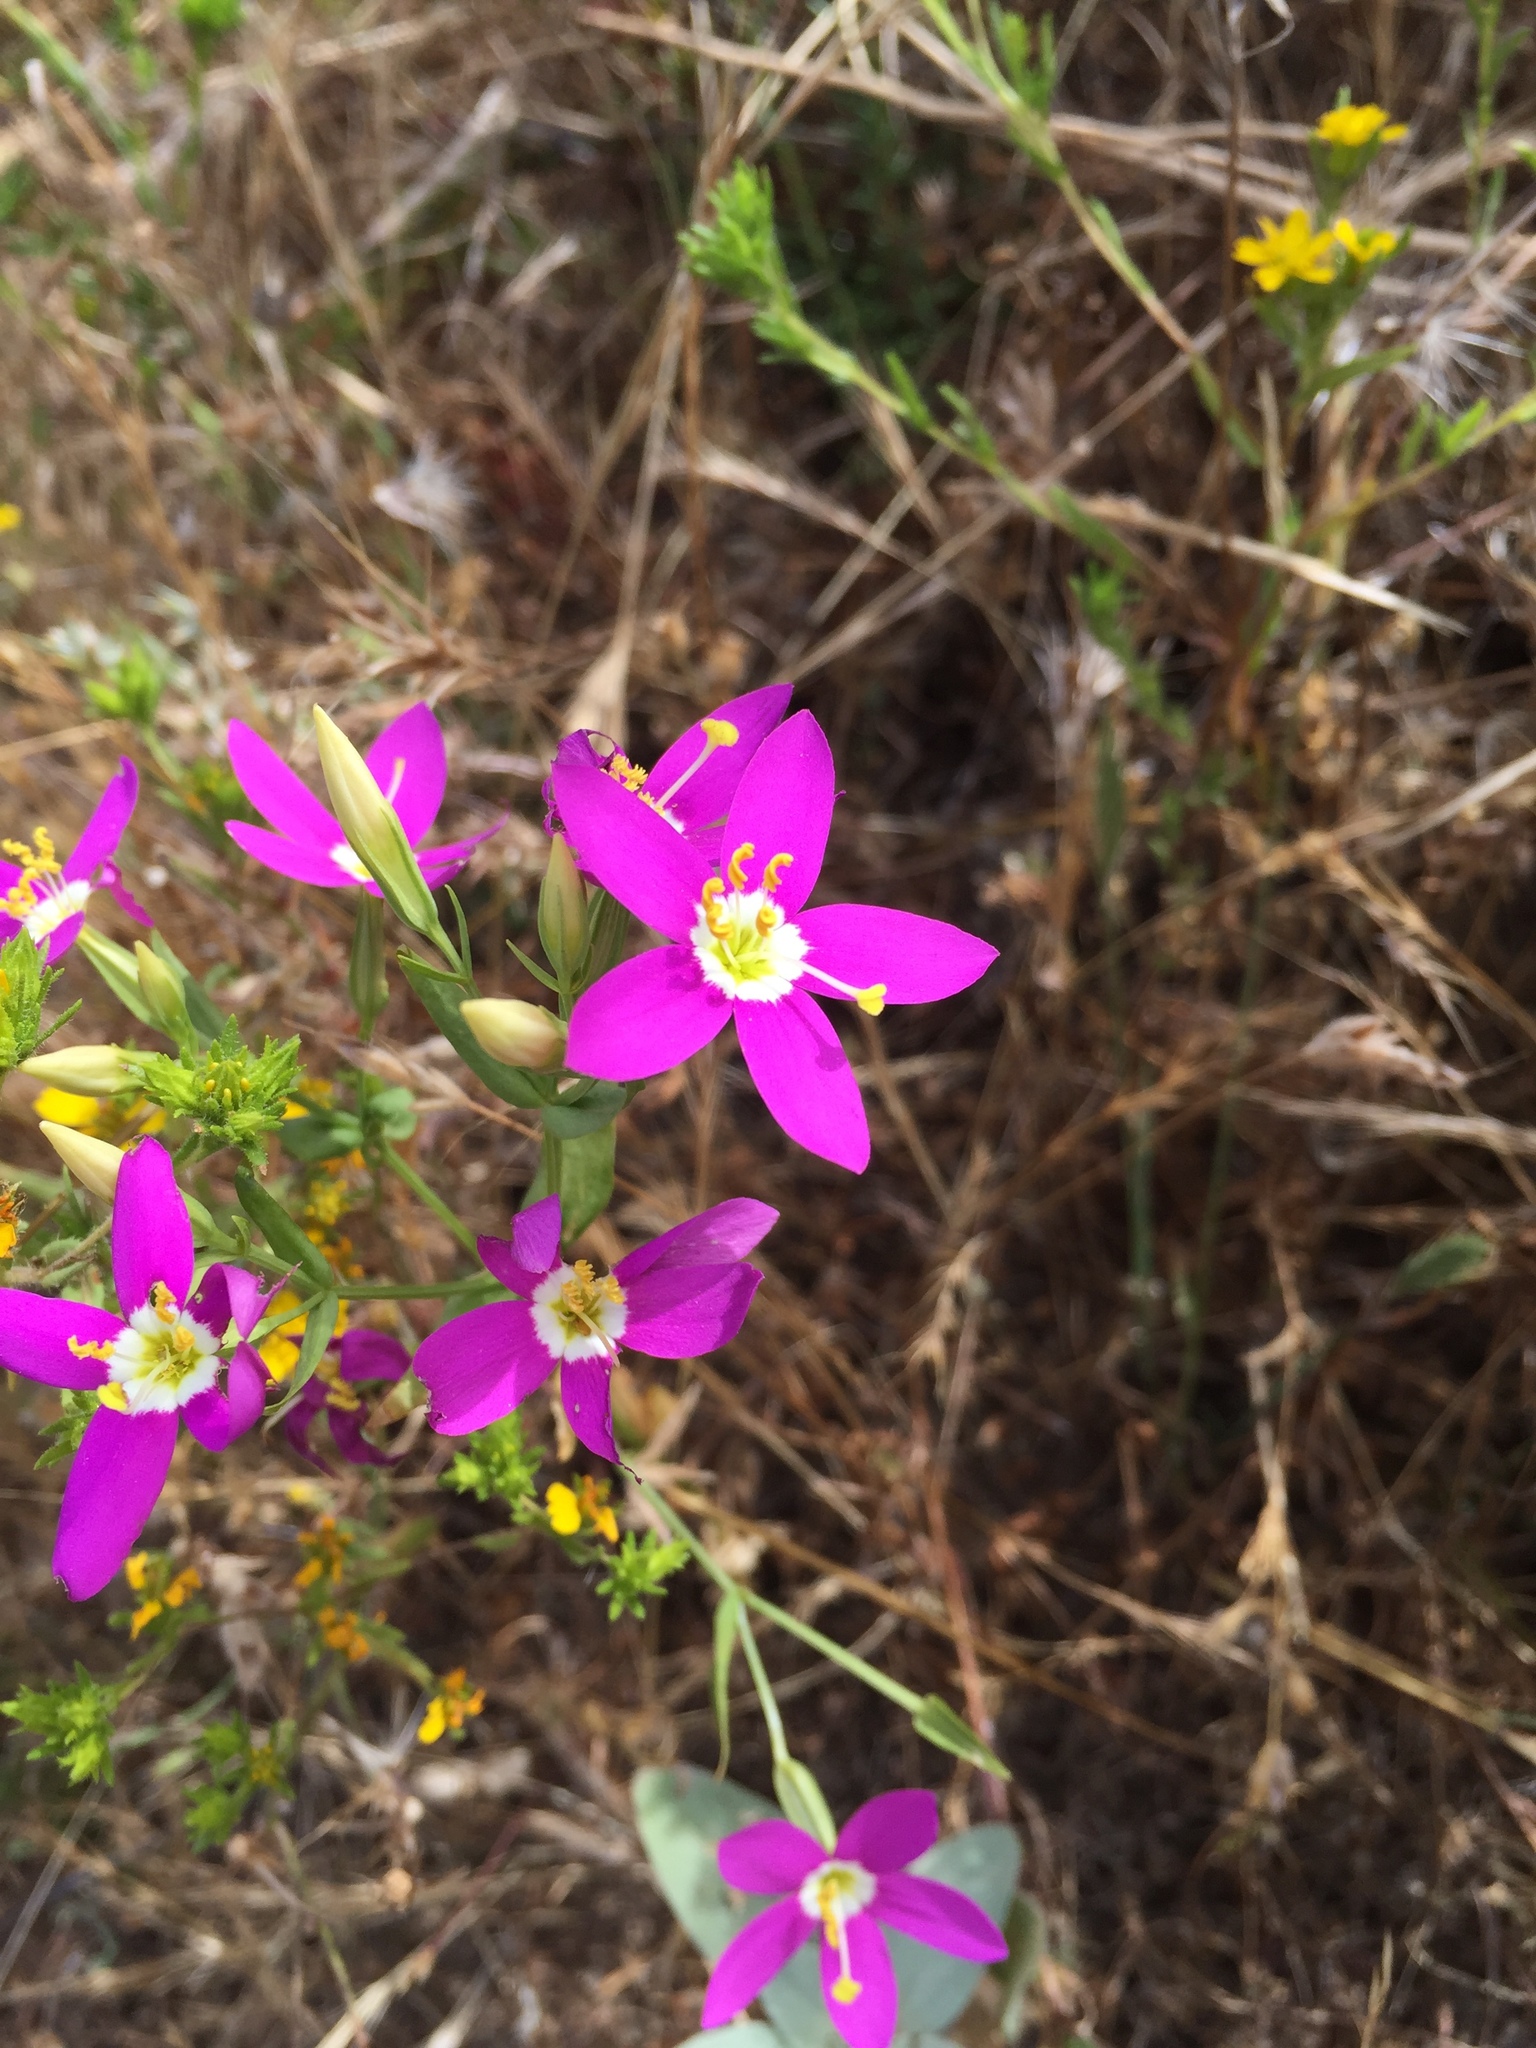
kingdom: Plantae
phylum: Tracheophyta
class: Magnoliopsida
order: Gentianales
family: Gentianaceae
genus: Zeltnera
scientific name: Zeltnera venusta
